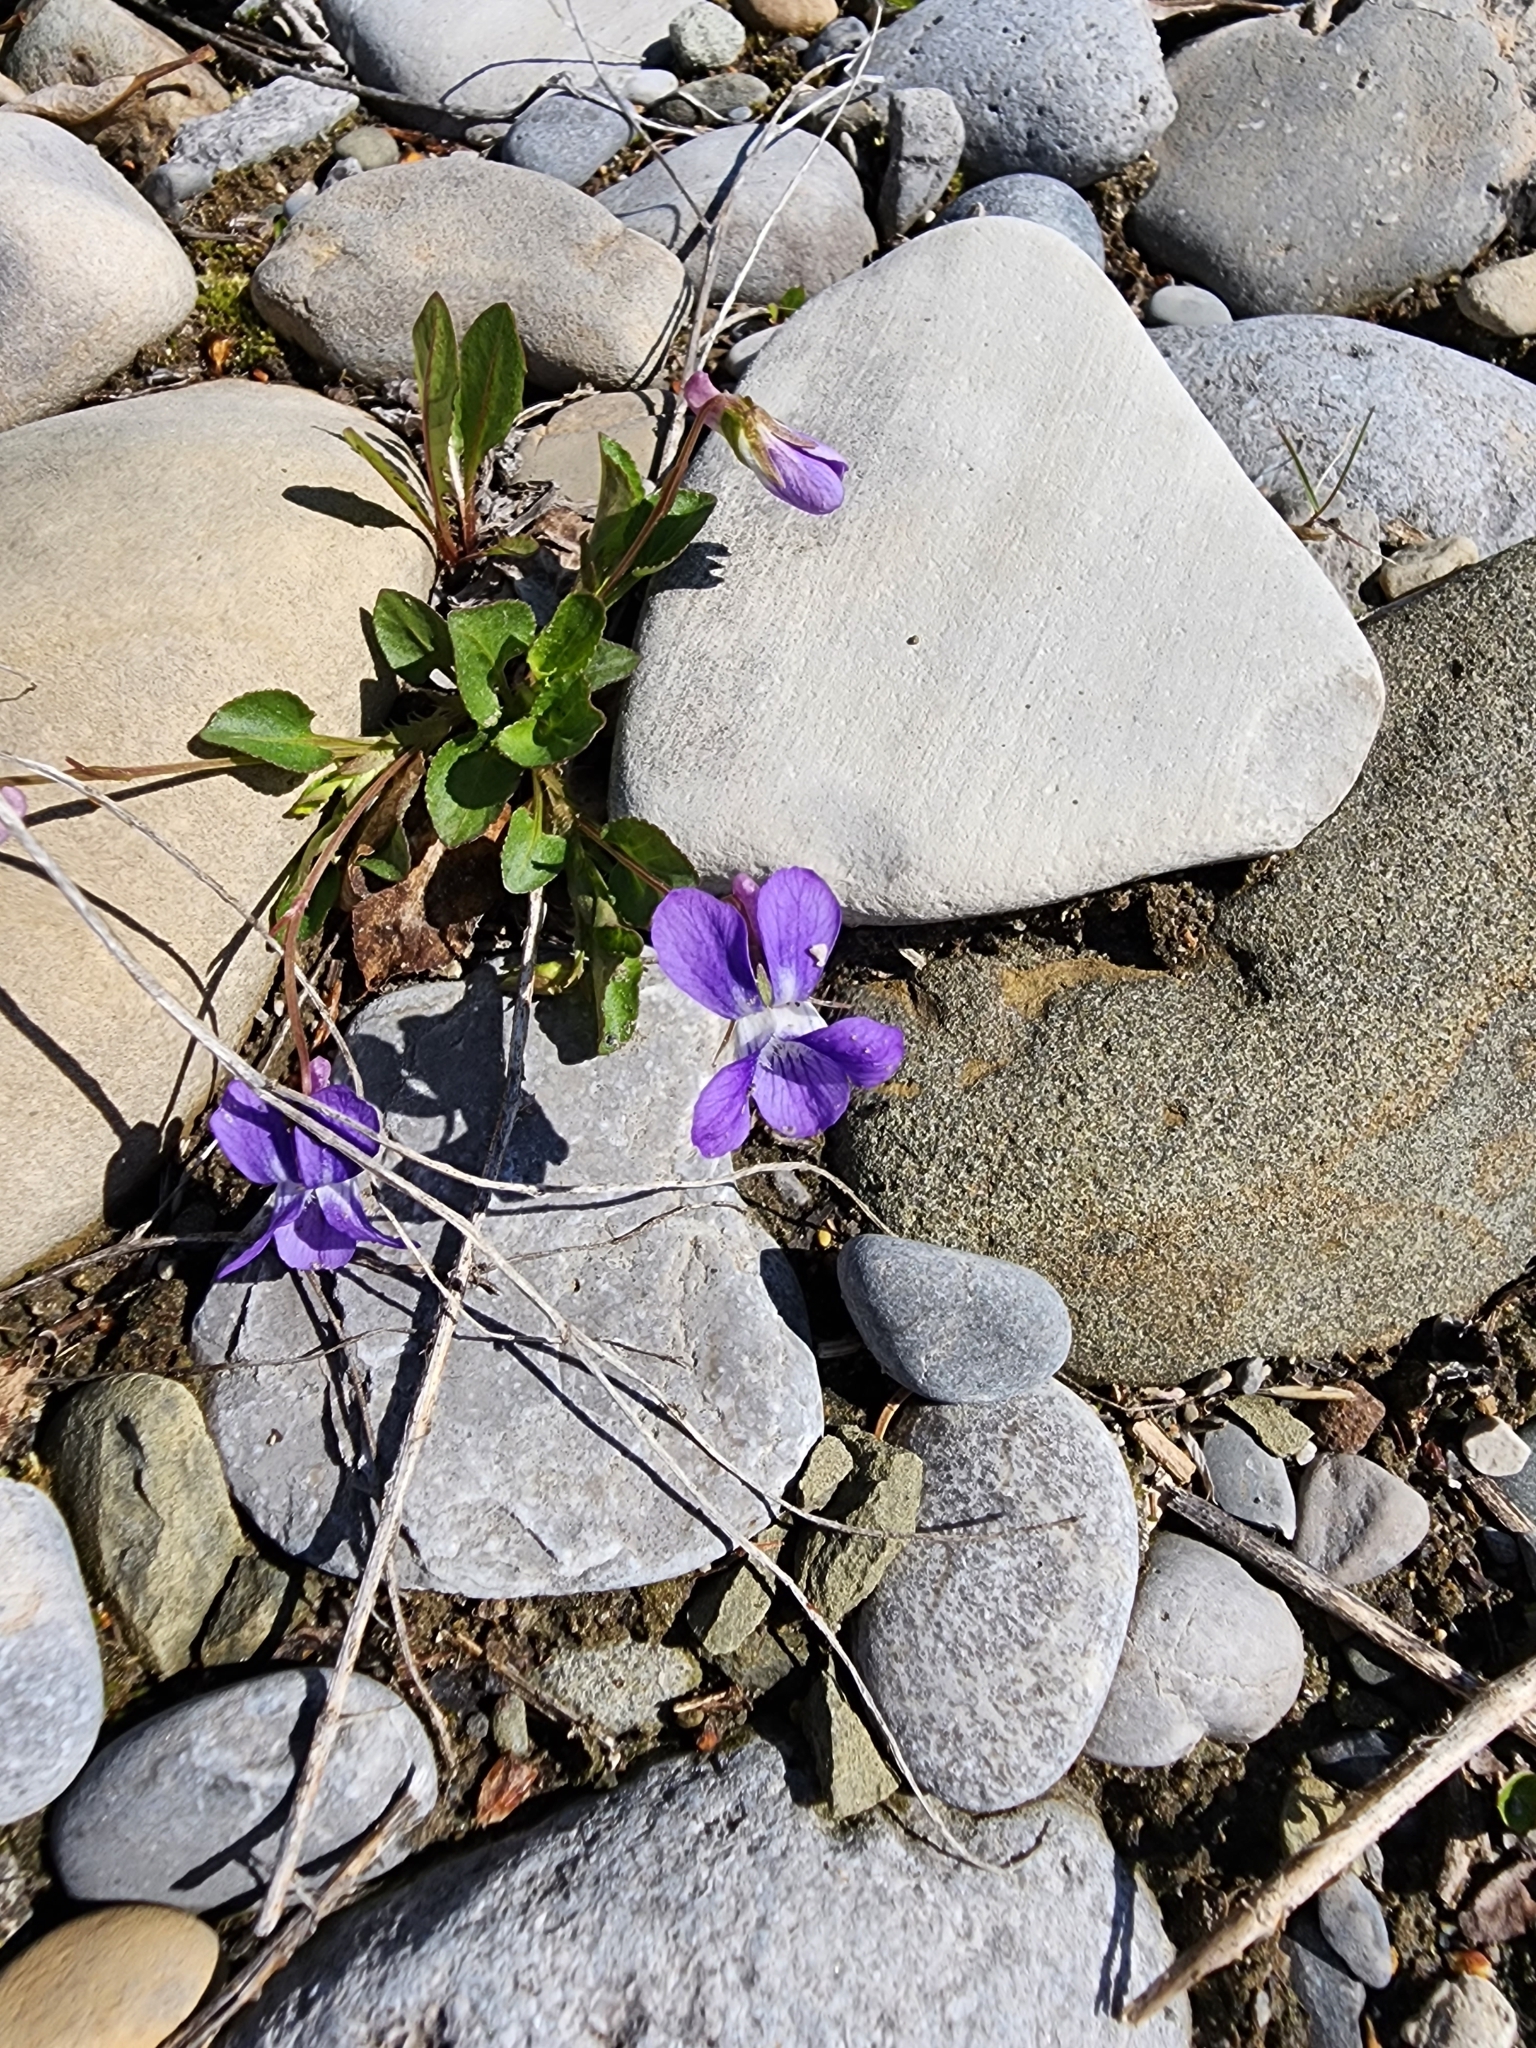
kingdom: Plantae
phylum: Tracheophyta
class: Magnoliopsida
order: Malpighiales
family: Violaceae
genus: Viola
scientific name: Viola adunca
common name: Sand violet
